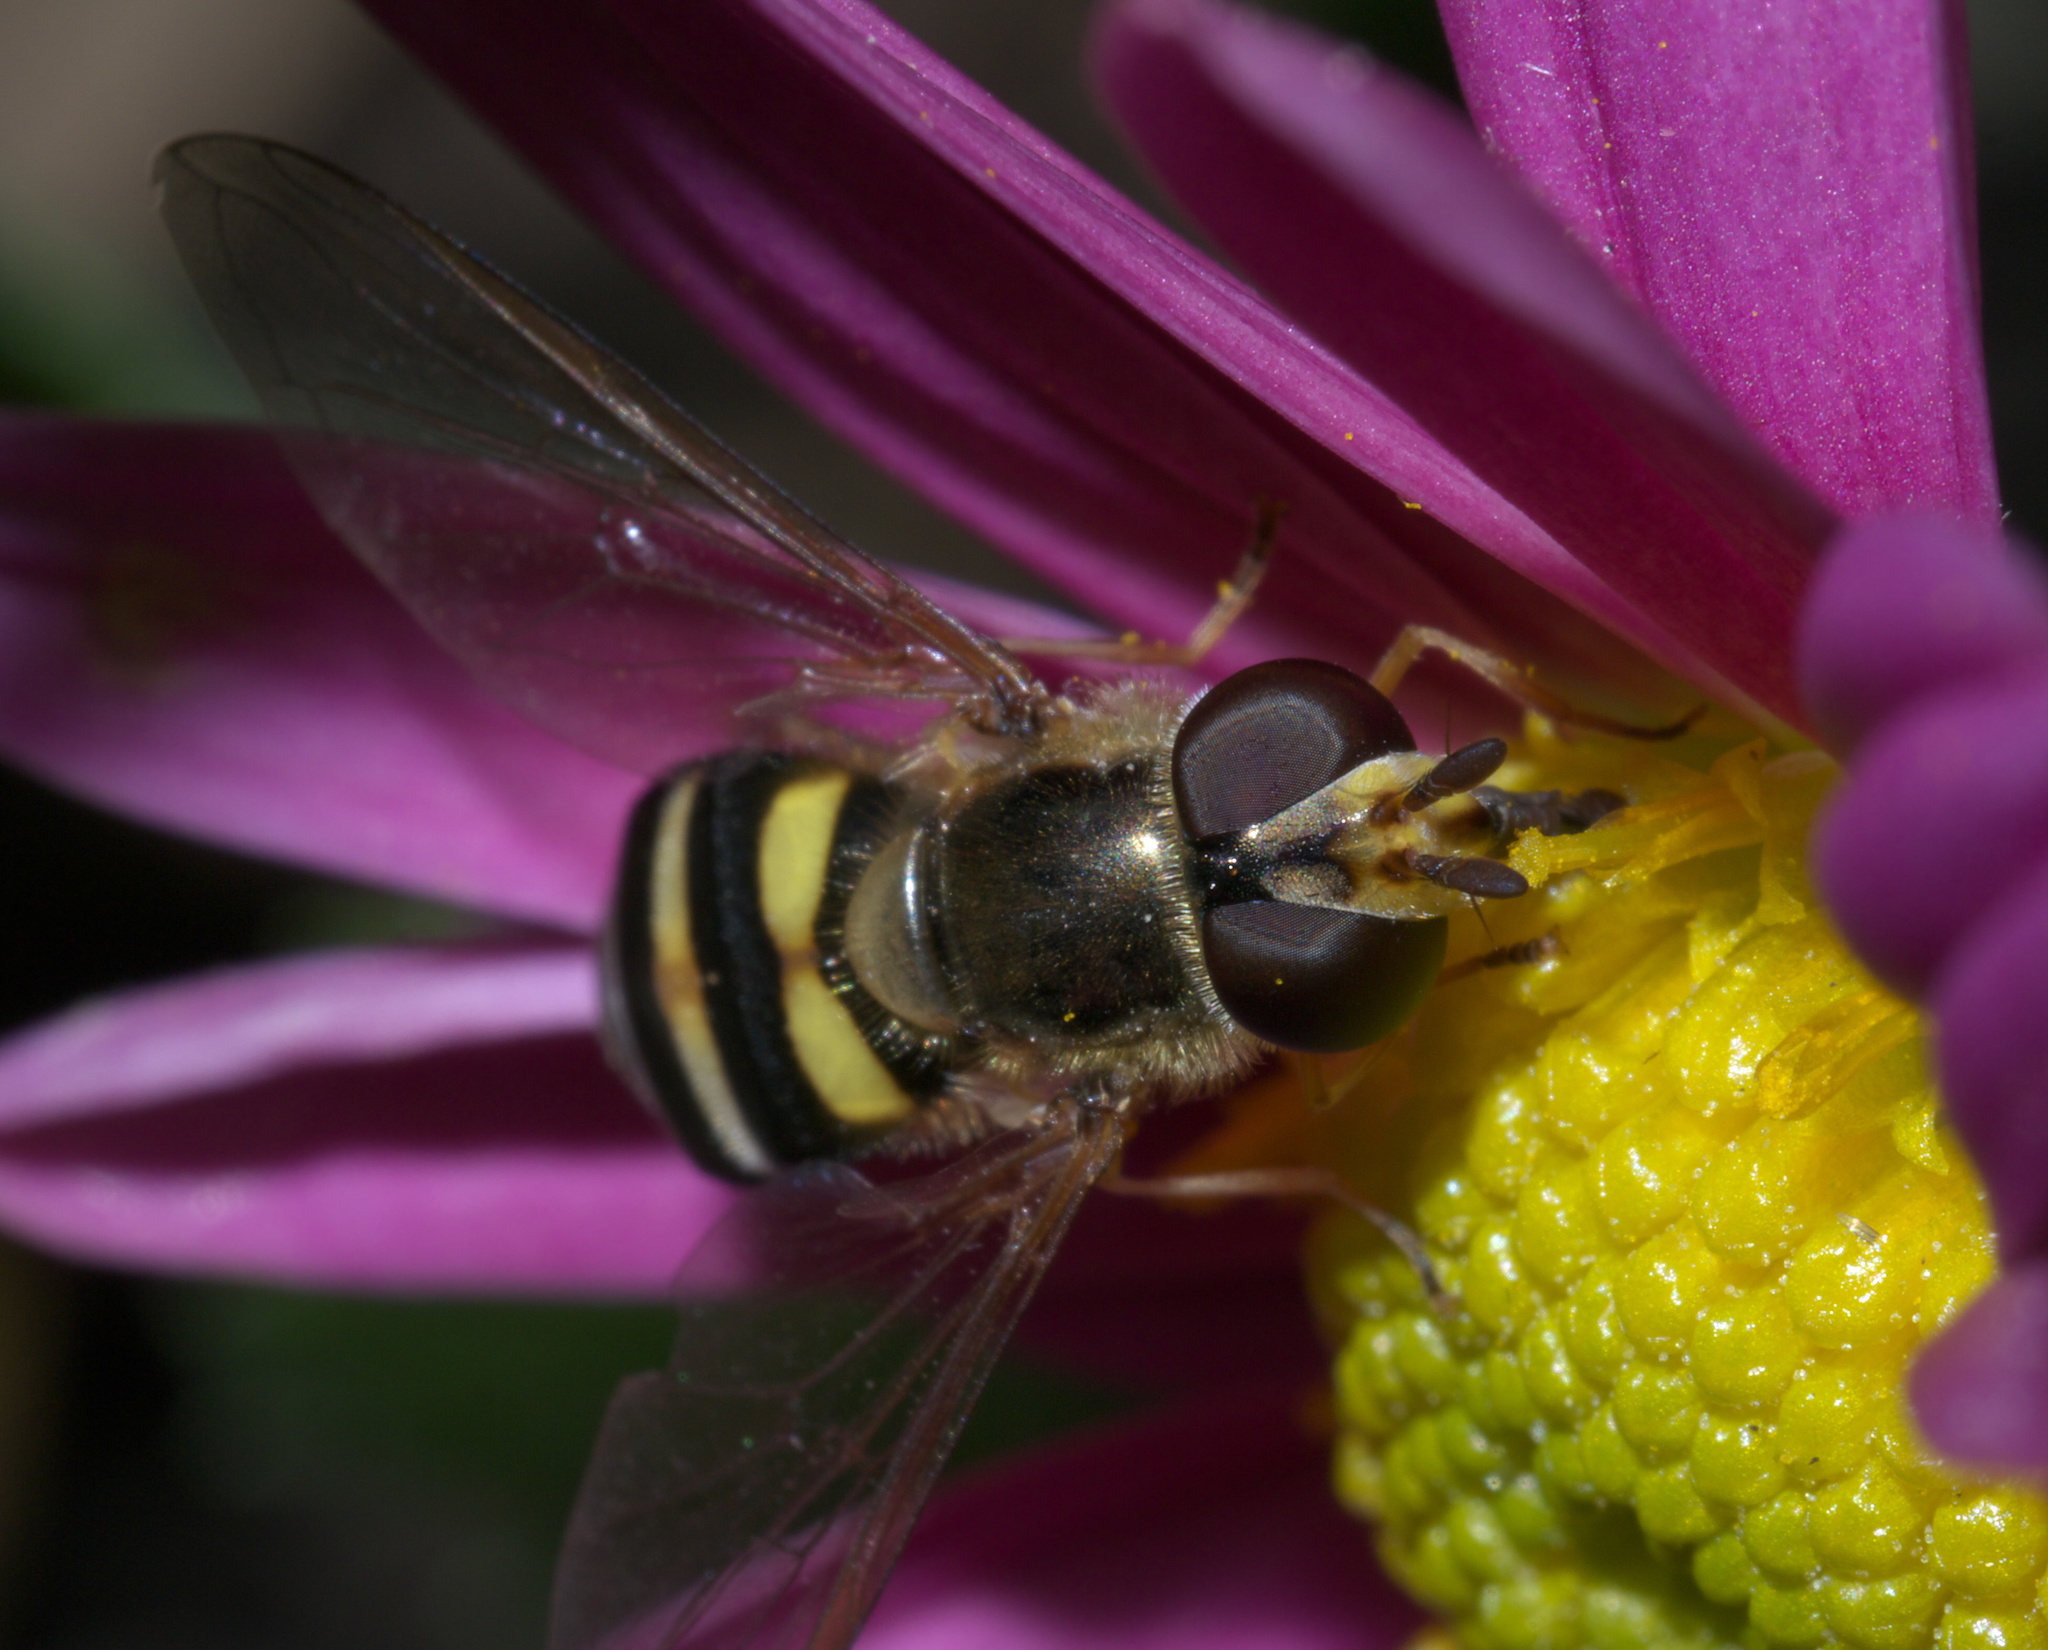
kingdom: Animalia
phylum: Arthropoda
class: Insecta
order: Diptera
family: Syrphidae
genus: Eupeodes
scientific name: Eupeodes
